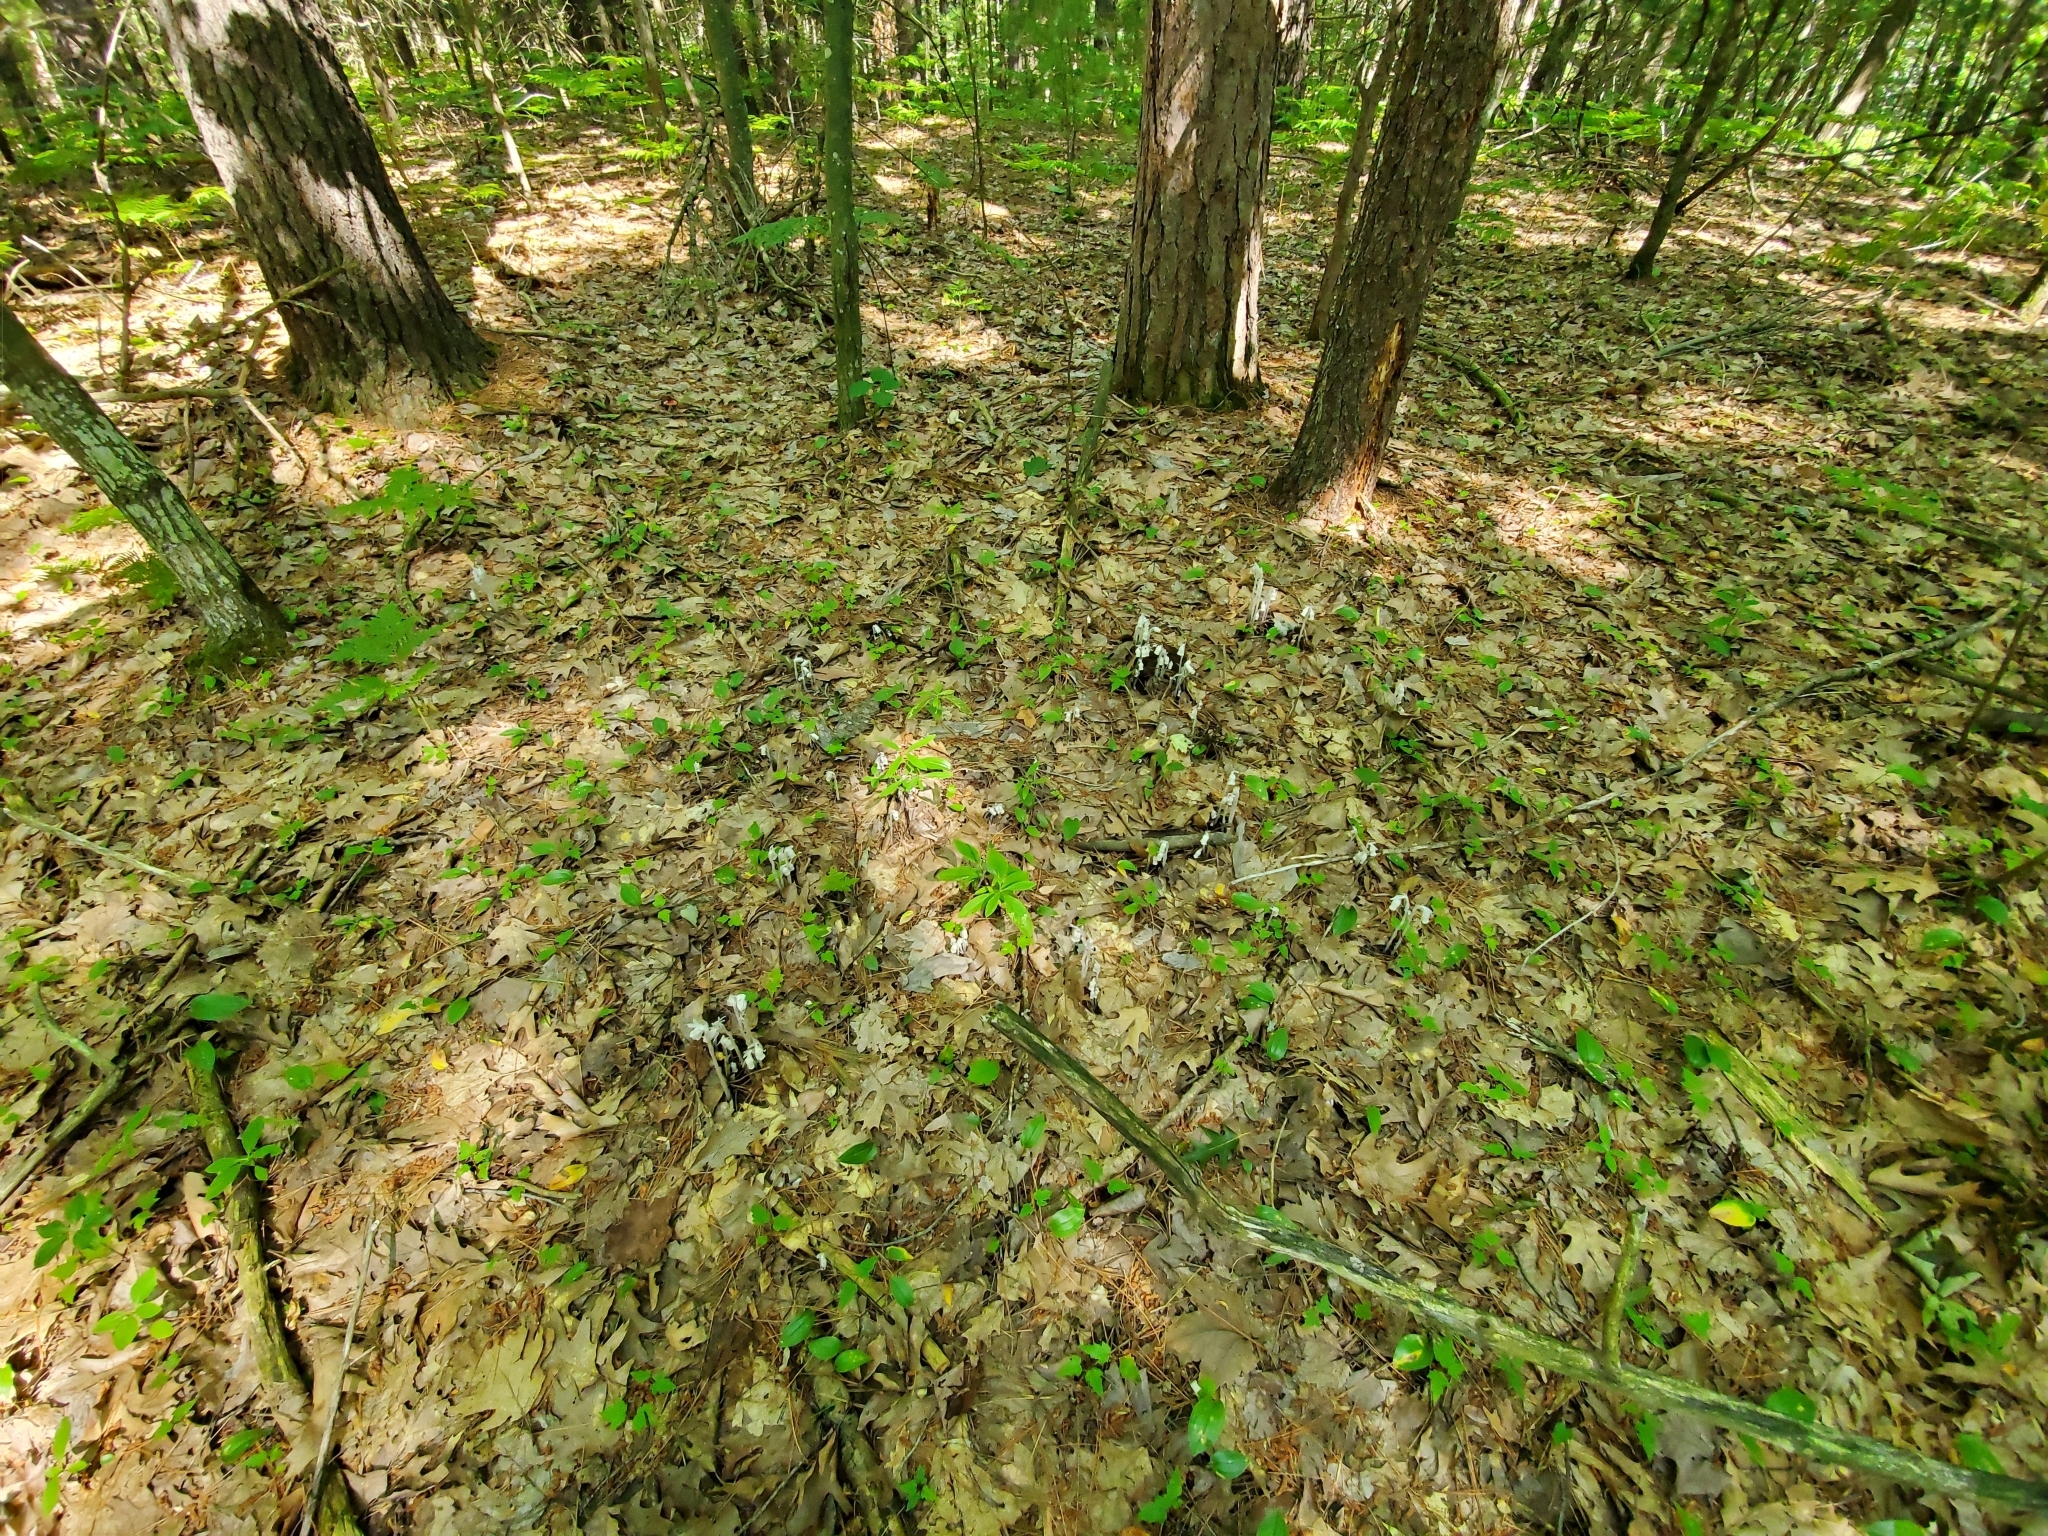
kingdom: Plantae
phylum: Tracheophyta
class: Magnoliopsida
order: Ericales
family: Ericaceae
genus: Monotropa
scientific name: Monotropa uniflora
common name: Convulsion root
